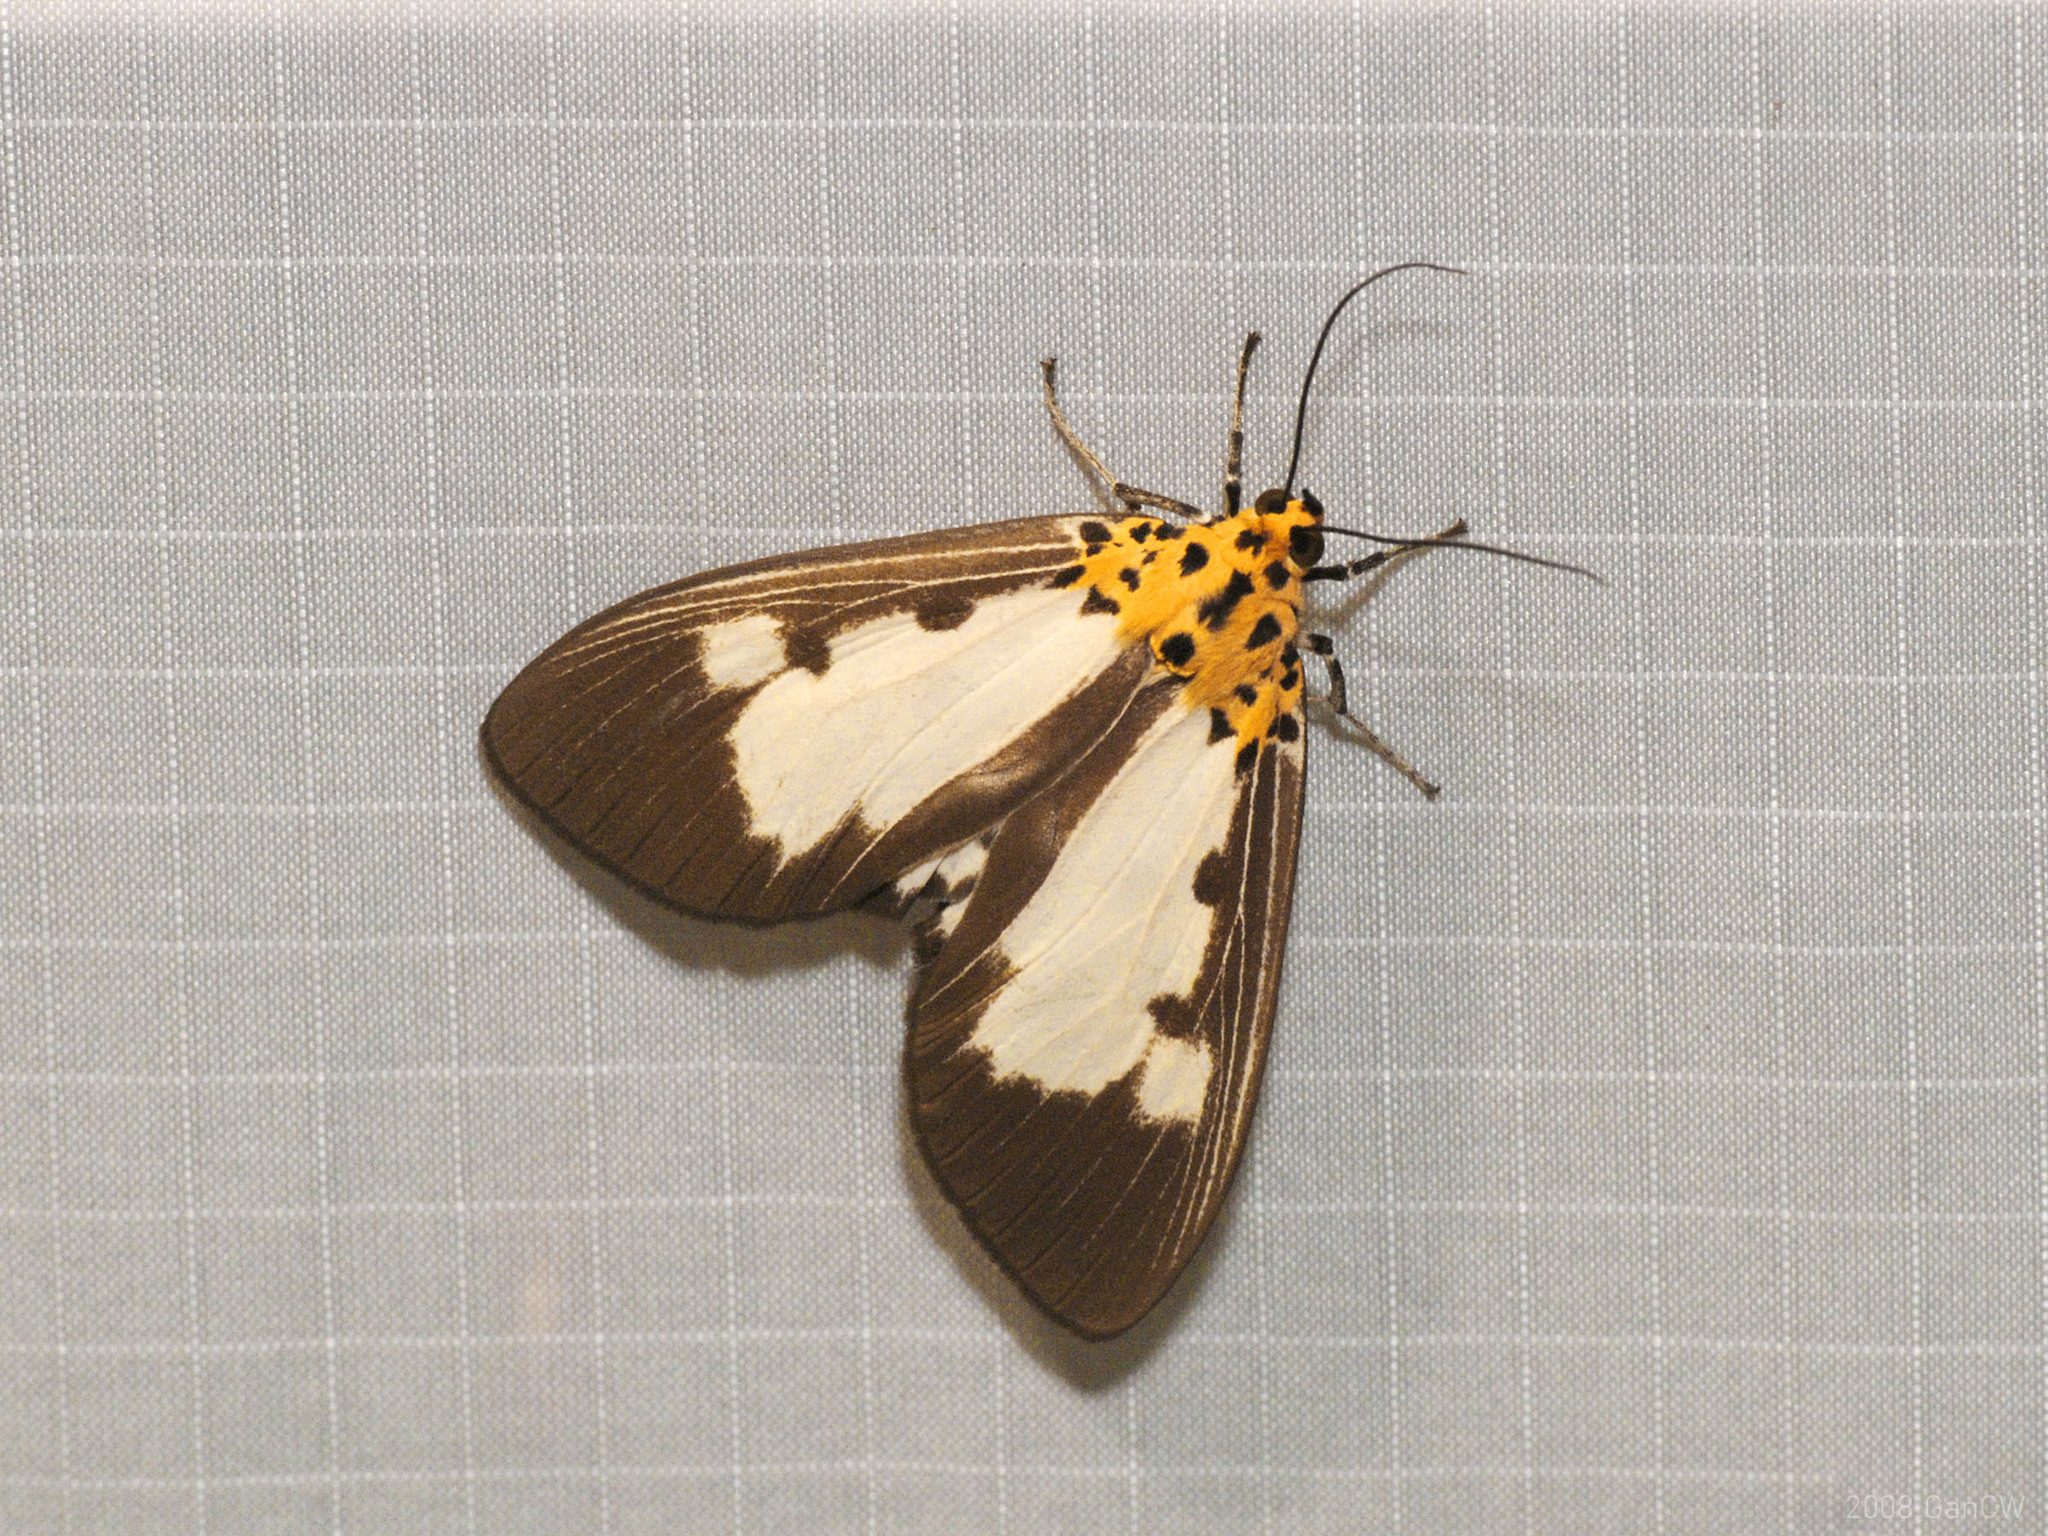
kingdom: Animalia
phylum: Arthropoda
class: Insecta
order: Lepidoptera
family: Erebidae
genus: Asota
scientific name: Asota plana
